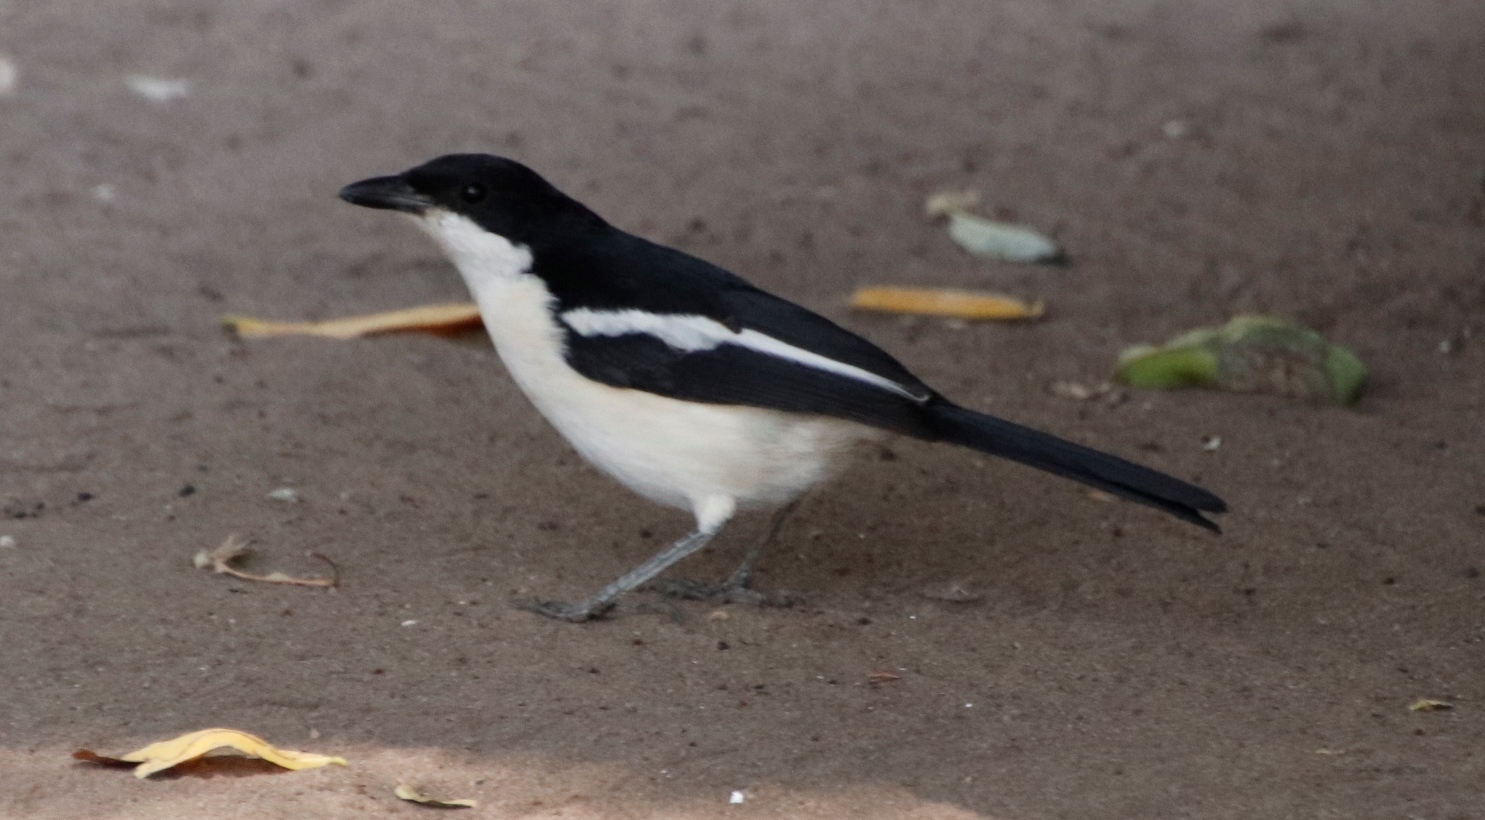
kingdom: Animalia
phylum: Chordata
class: Aves
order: Passeriformes
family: Malaconotidae
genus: Laniarius
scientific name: Laniarius bicolor
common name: Swamp boubou
